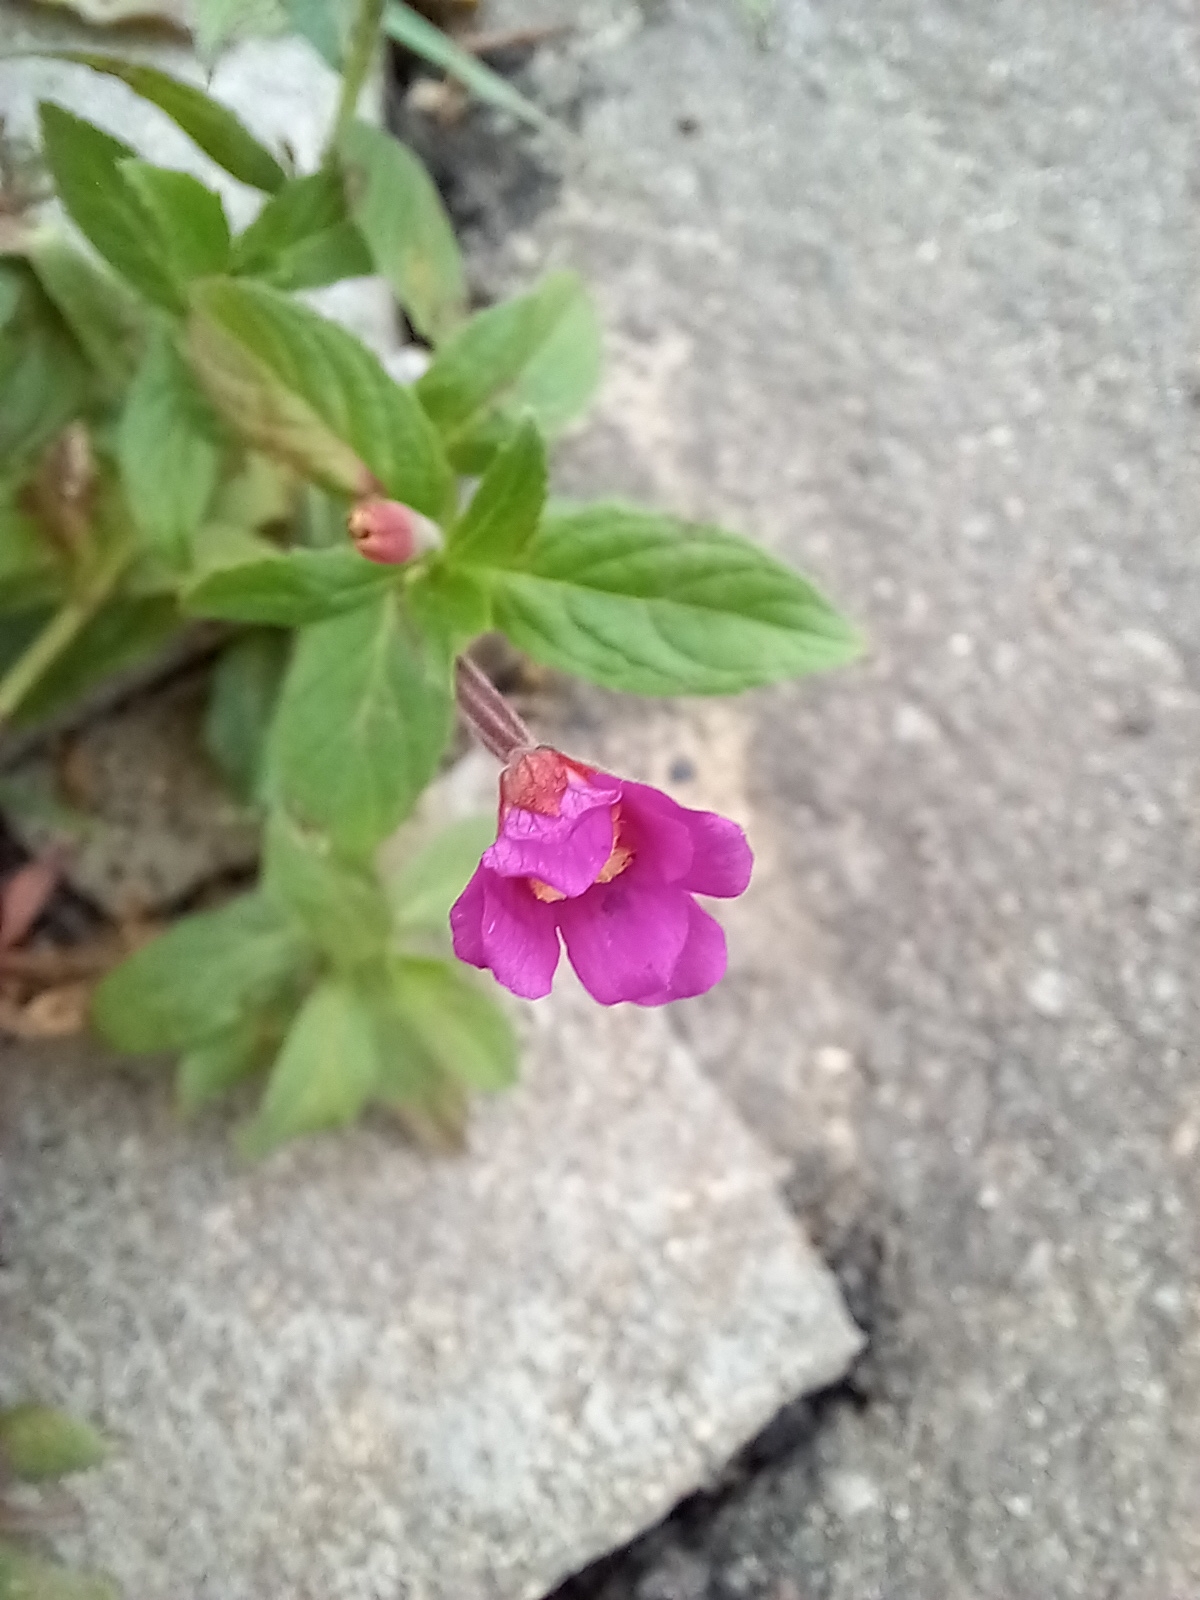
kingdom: Plantae
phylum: Tracheophyta
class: Magnoliopsida
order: Myrtales
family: Onagraceae
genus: Epilobium
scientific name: Epilobium hirsutum
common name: Great willowherb
